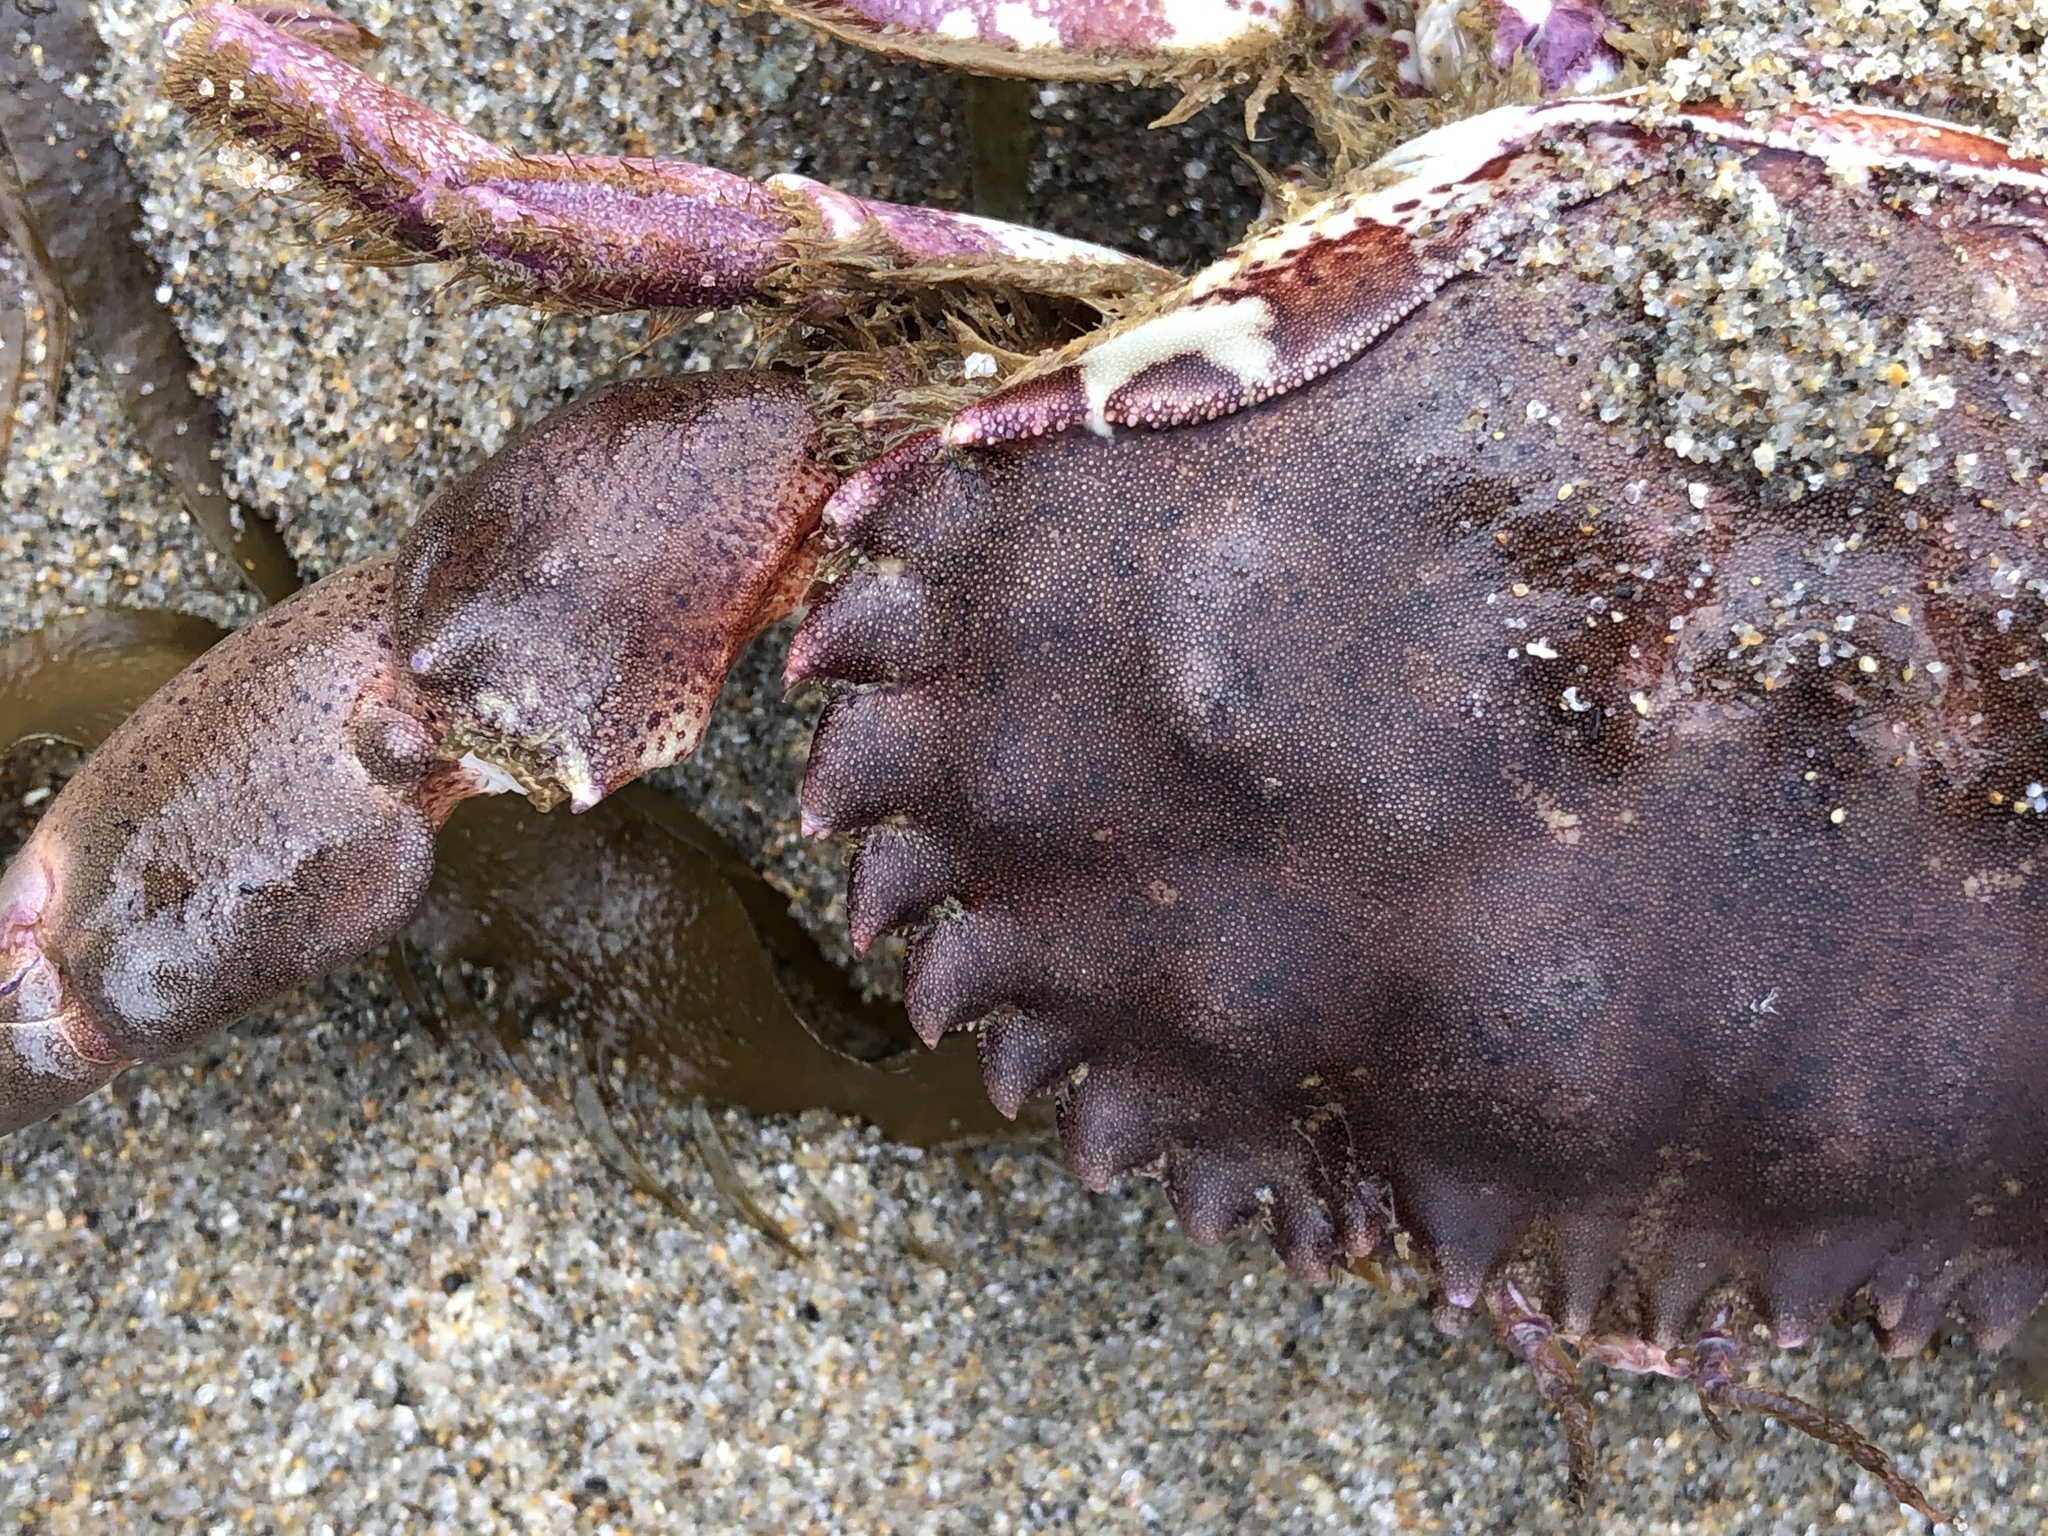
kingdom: Animalia
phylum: Arthropoda
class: Malacostraca
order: Decapoda
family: Cancridae
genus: Romaleon
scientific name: Romaleon antennarium
